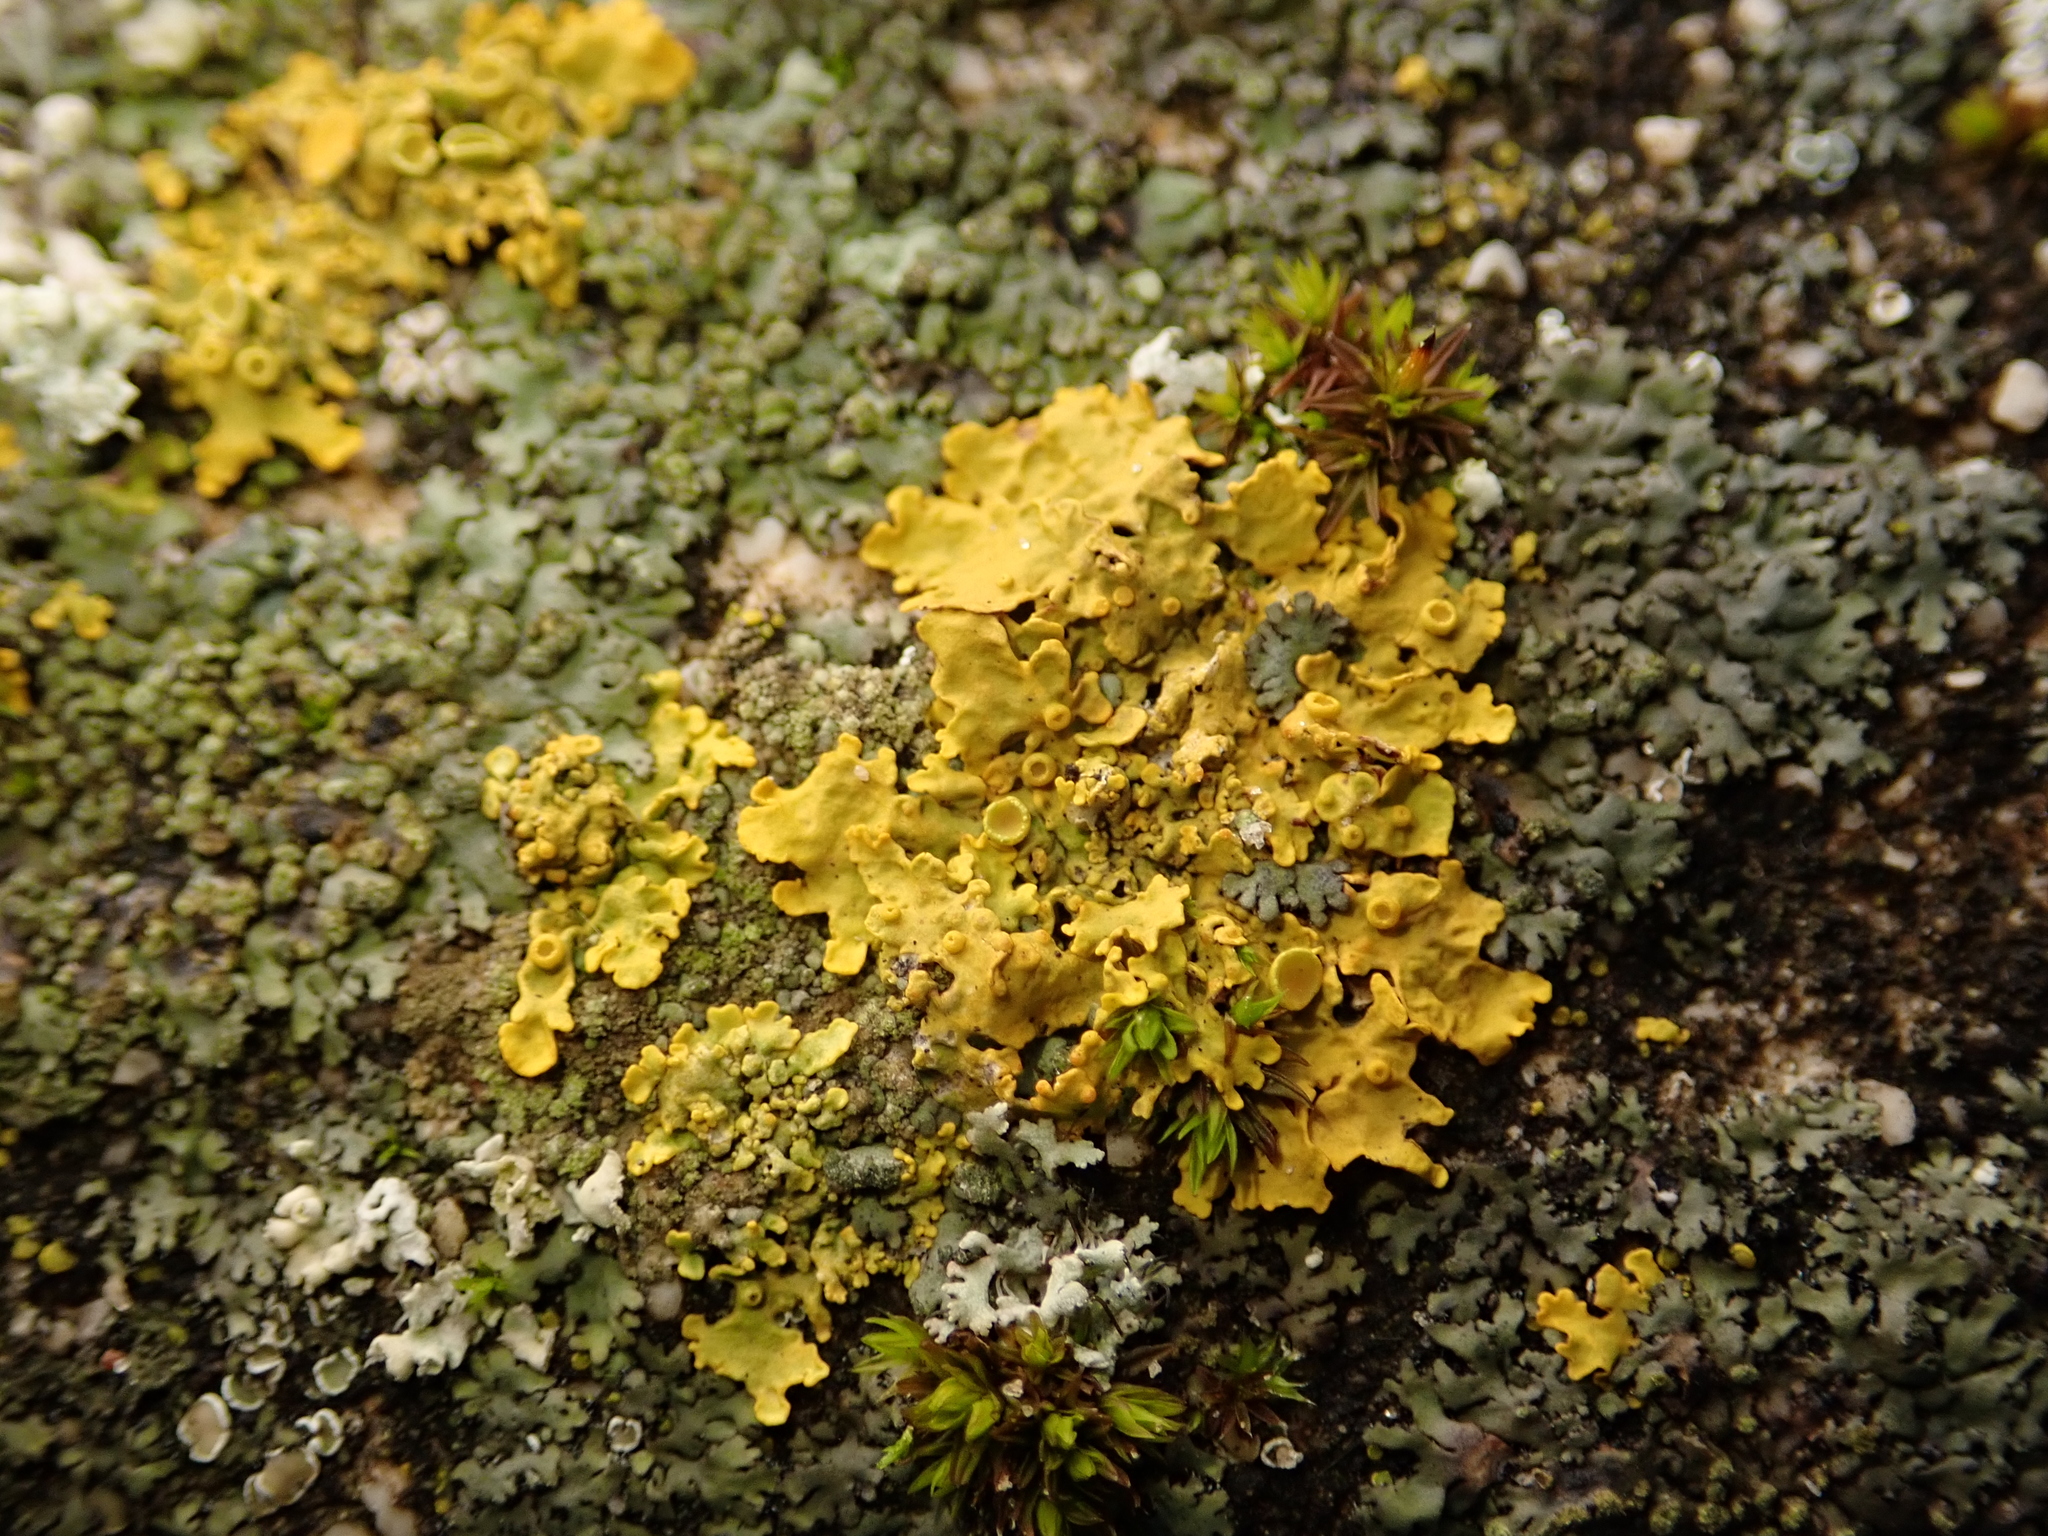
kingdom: Fungi
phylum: Ascomycota
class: Lecanoromycetes
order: Teloschistales
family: Teloschistaceae
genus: Xanthoria
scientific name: Xanthoria parietina
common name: Common orange lichen
